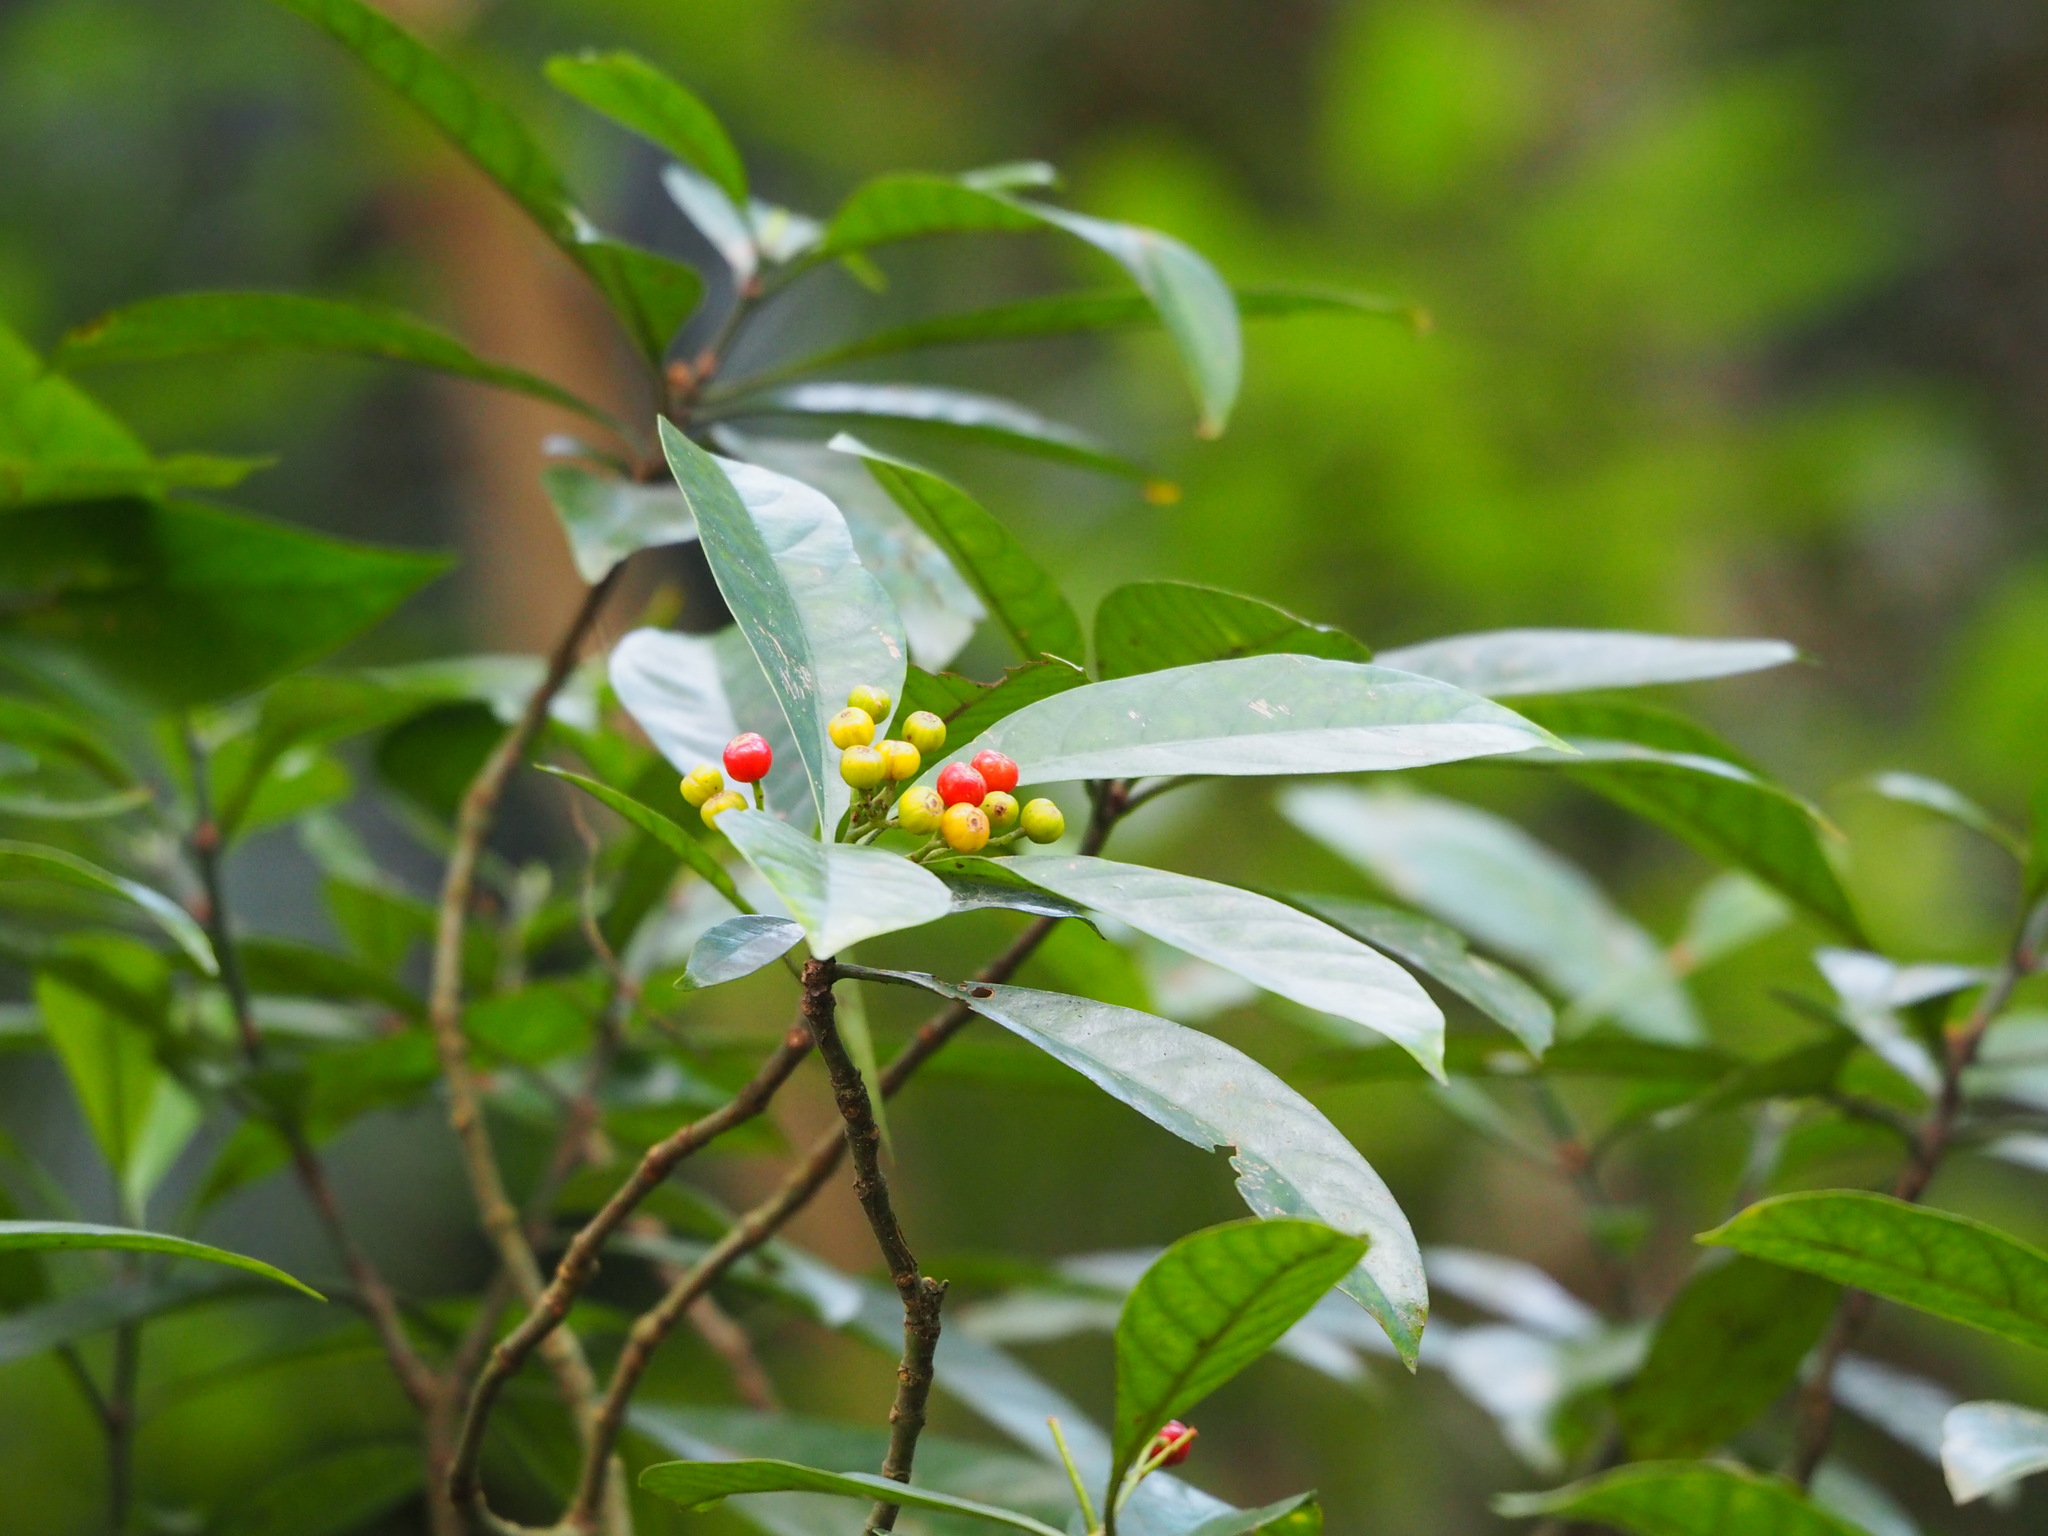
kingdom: Plantae
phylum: Tracheophyta
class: Magnoliopsida
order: Gentianales
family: Rubiaceae
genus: Psychotria
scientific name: Psychotria asiatica
